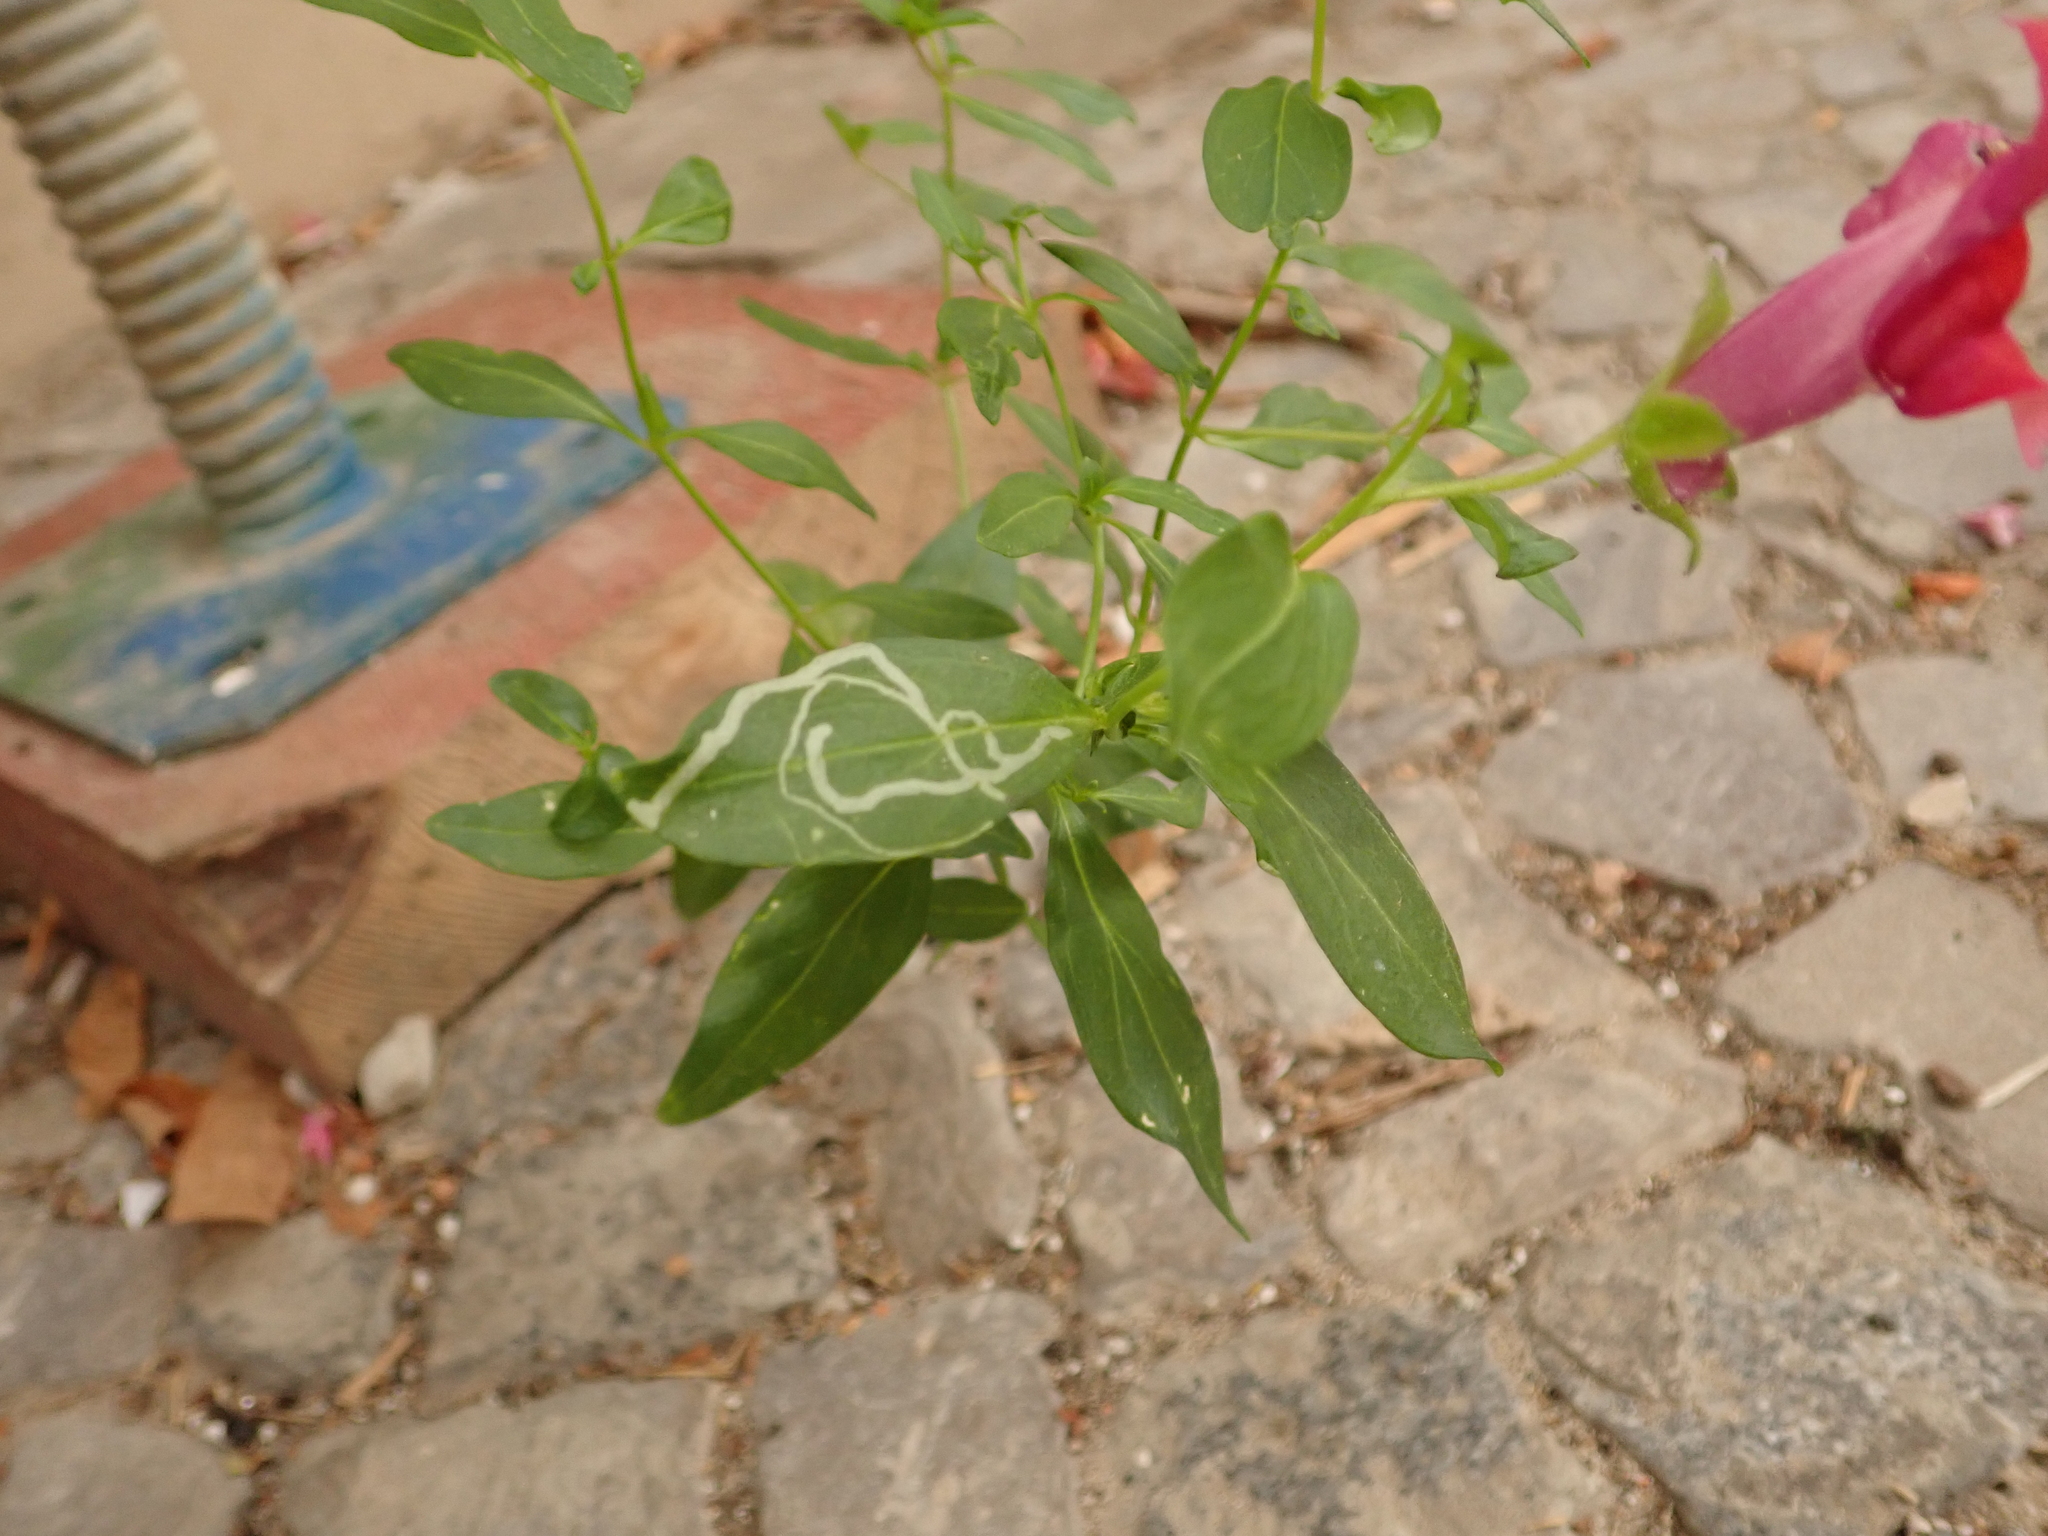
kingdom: Plantae
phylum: Tracheophyta
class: Magnoliopsida
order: Lamiales
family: Plantaginaceae
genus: Antirrhinum
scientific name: Antirrhinum majus
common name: Snapdragon
